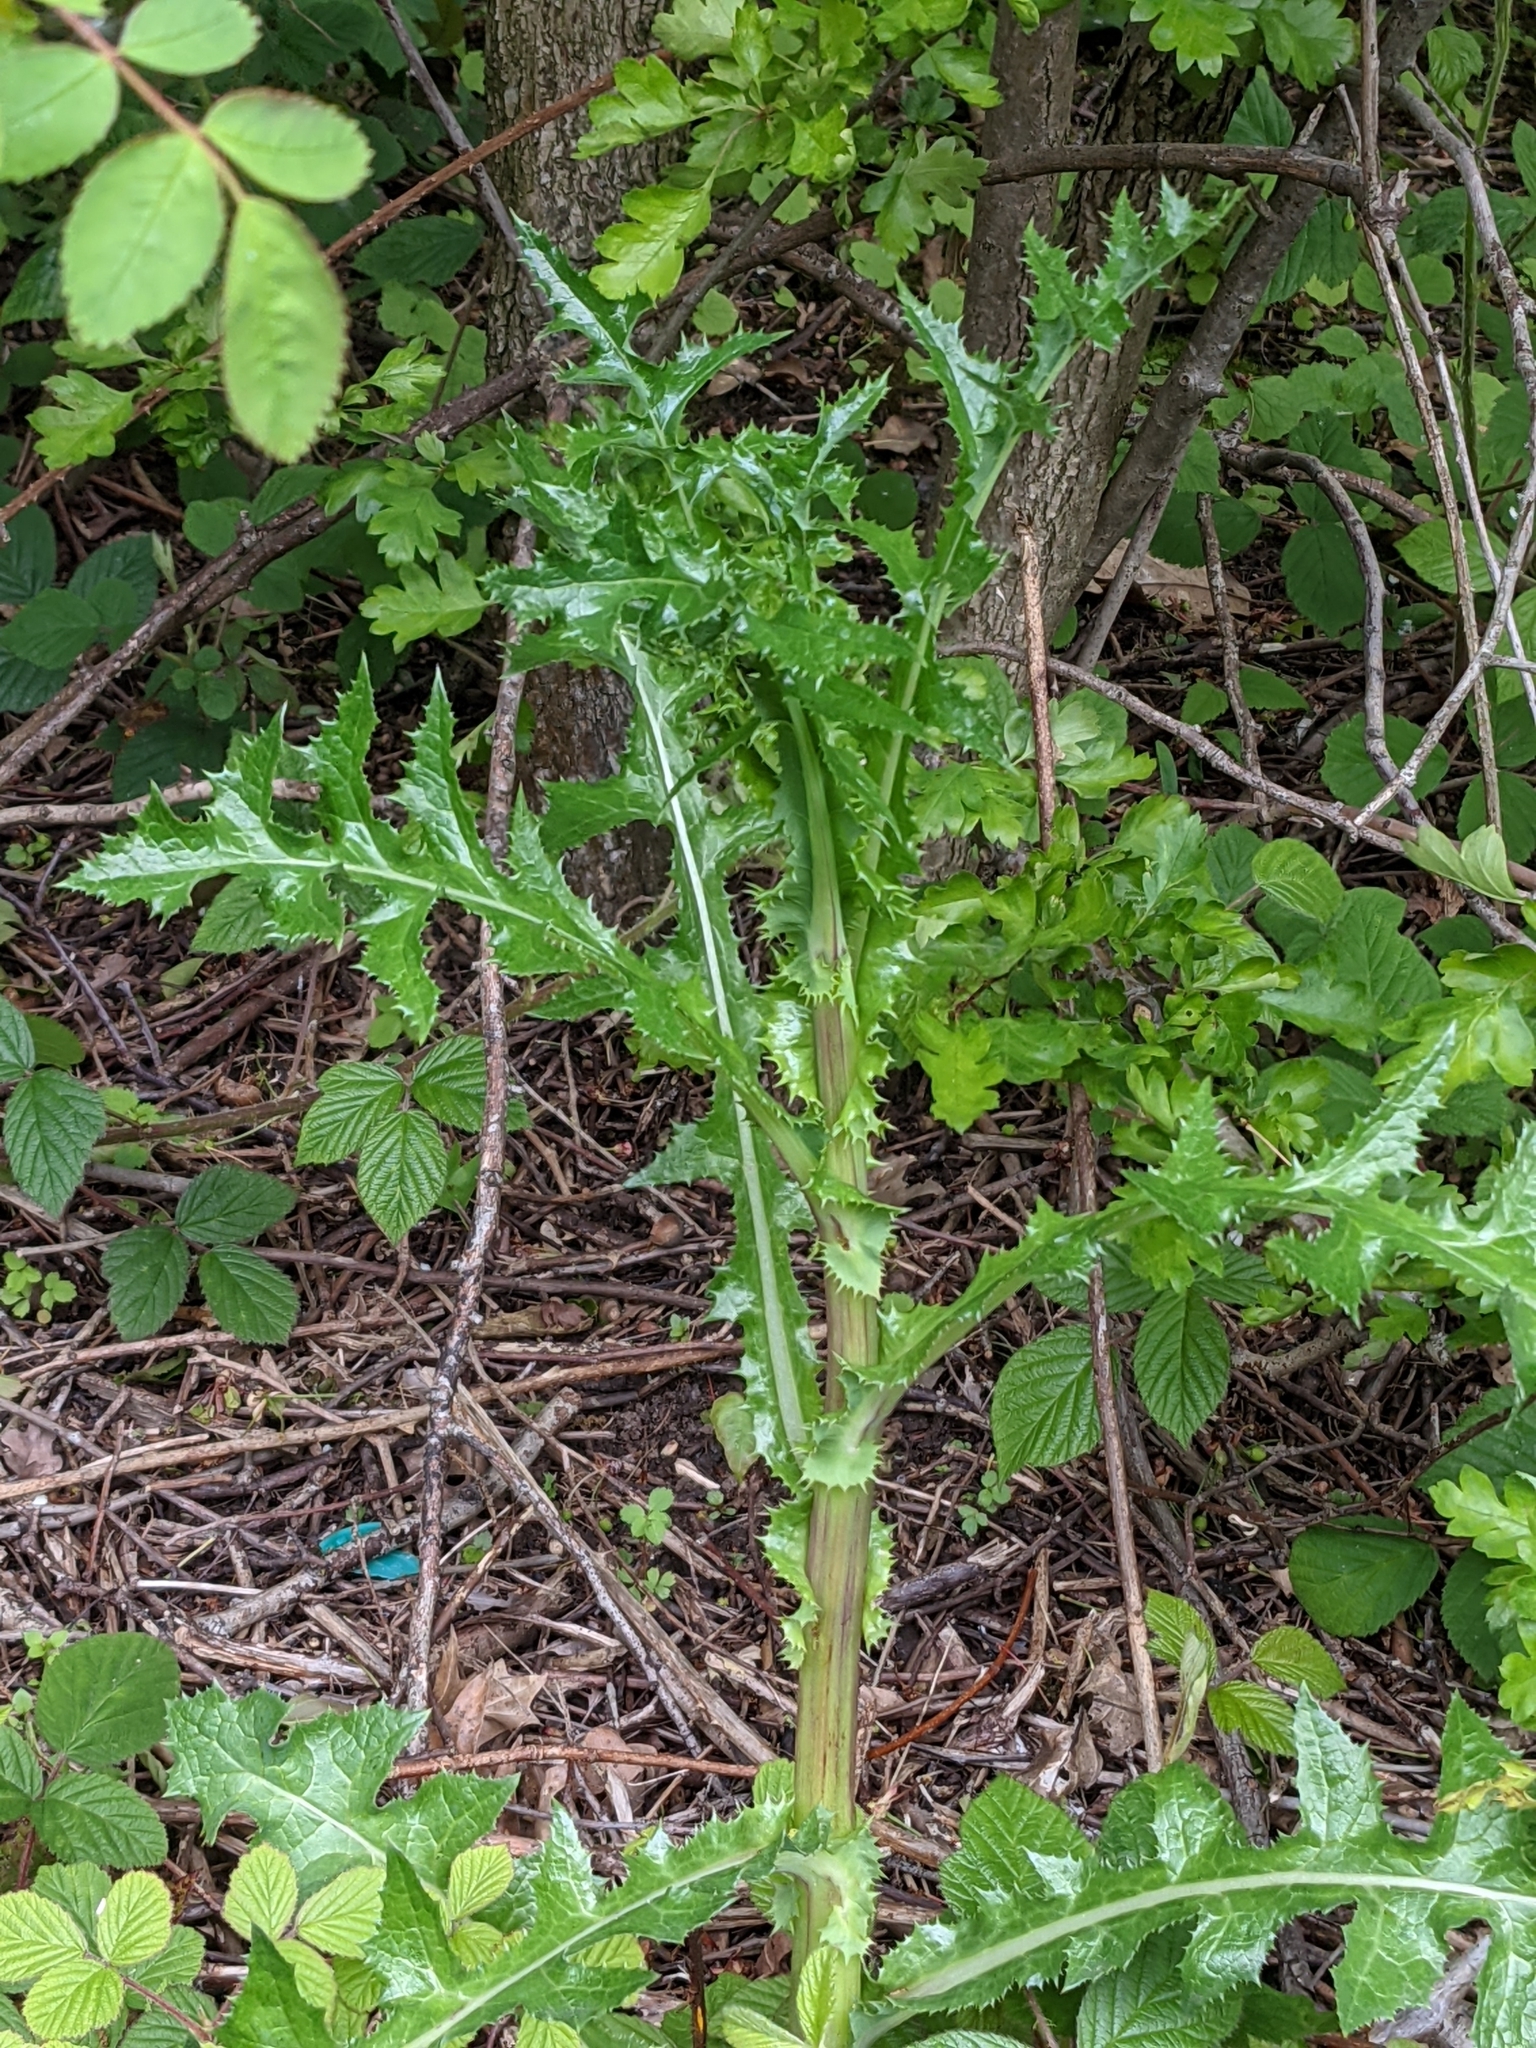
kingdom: Plantae
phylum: Tracheophyta
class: Magnoliopsida
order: Asterales
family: Asteraceae
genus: Sonchus
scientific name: Sonchus asper
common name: Prickly sow-thistle
